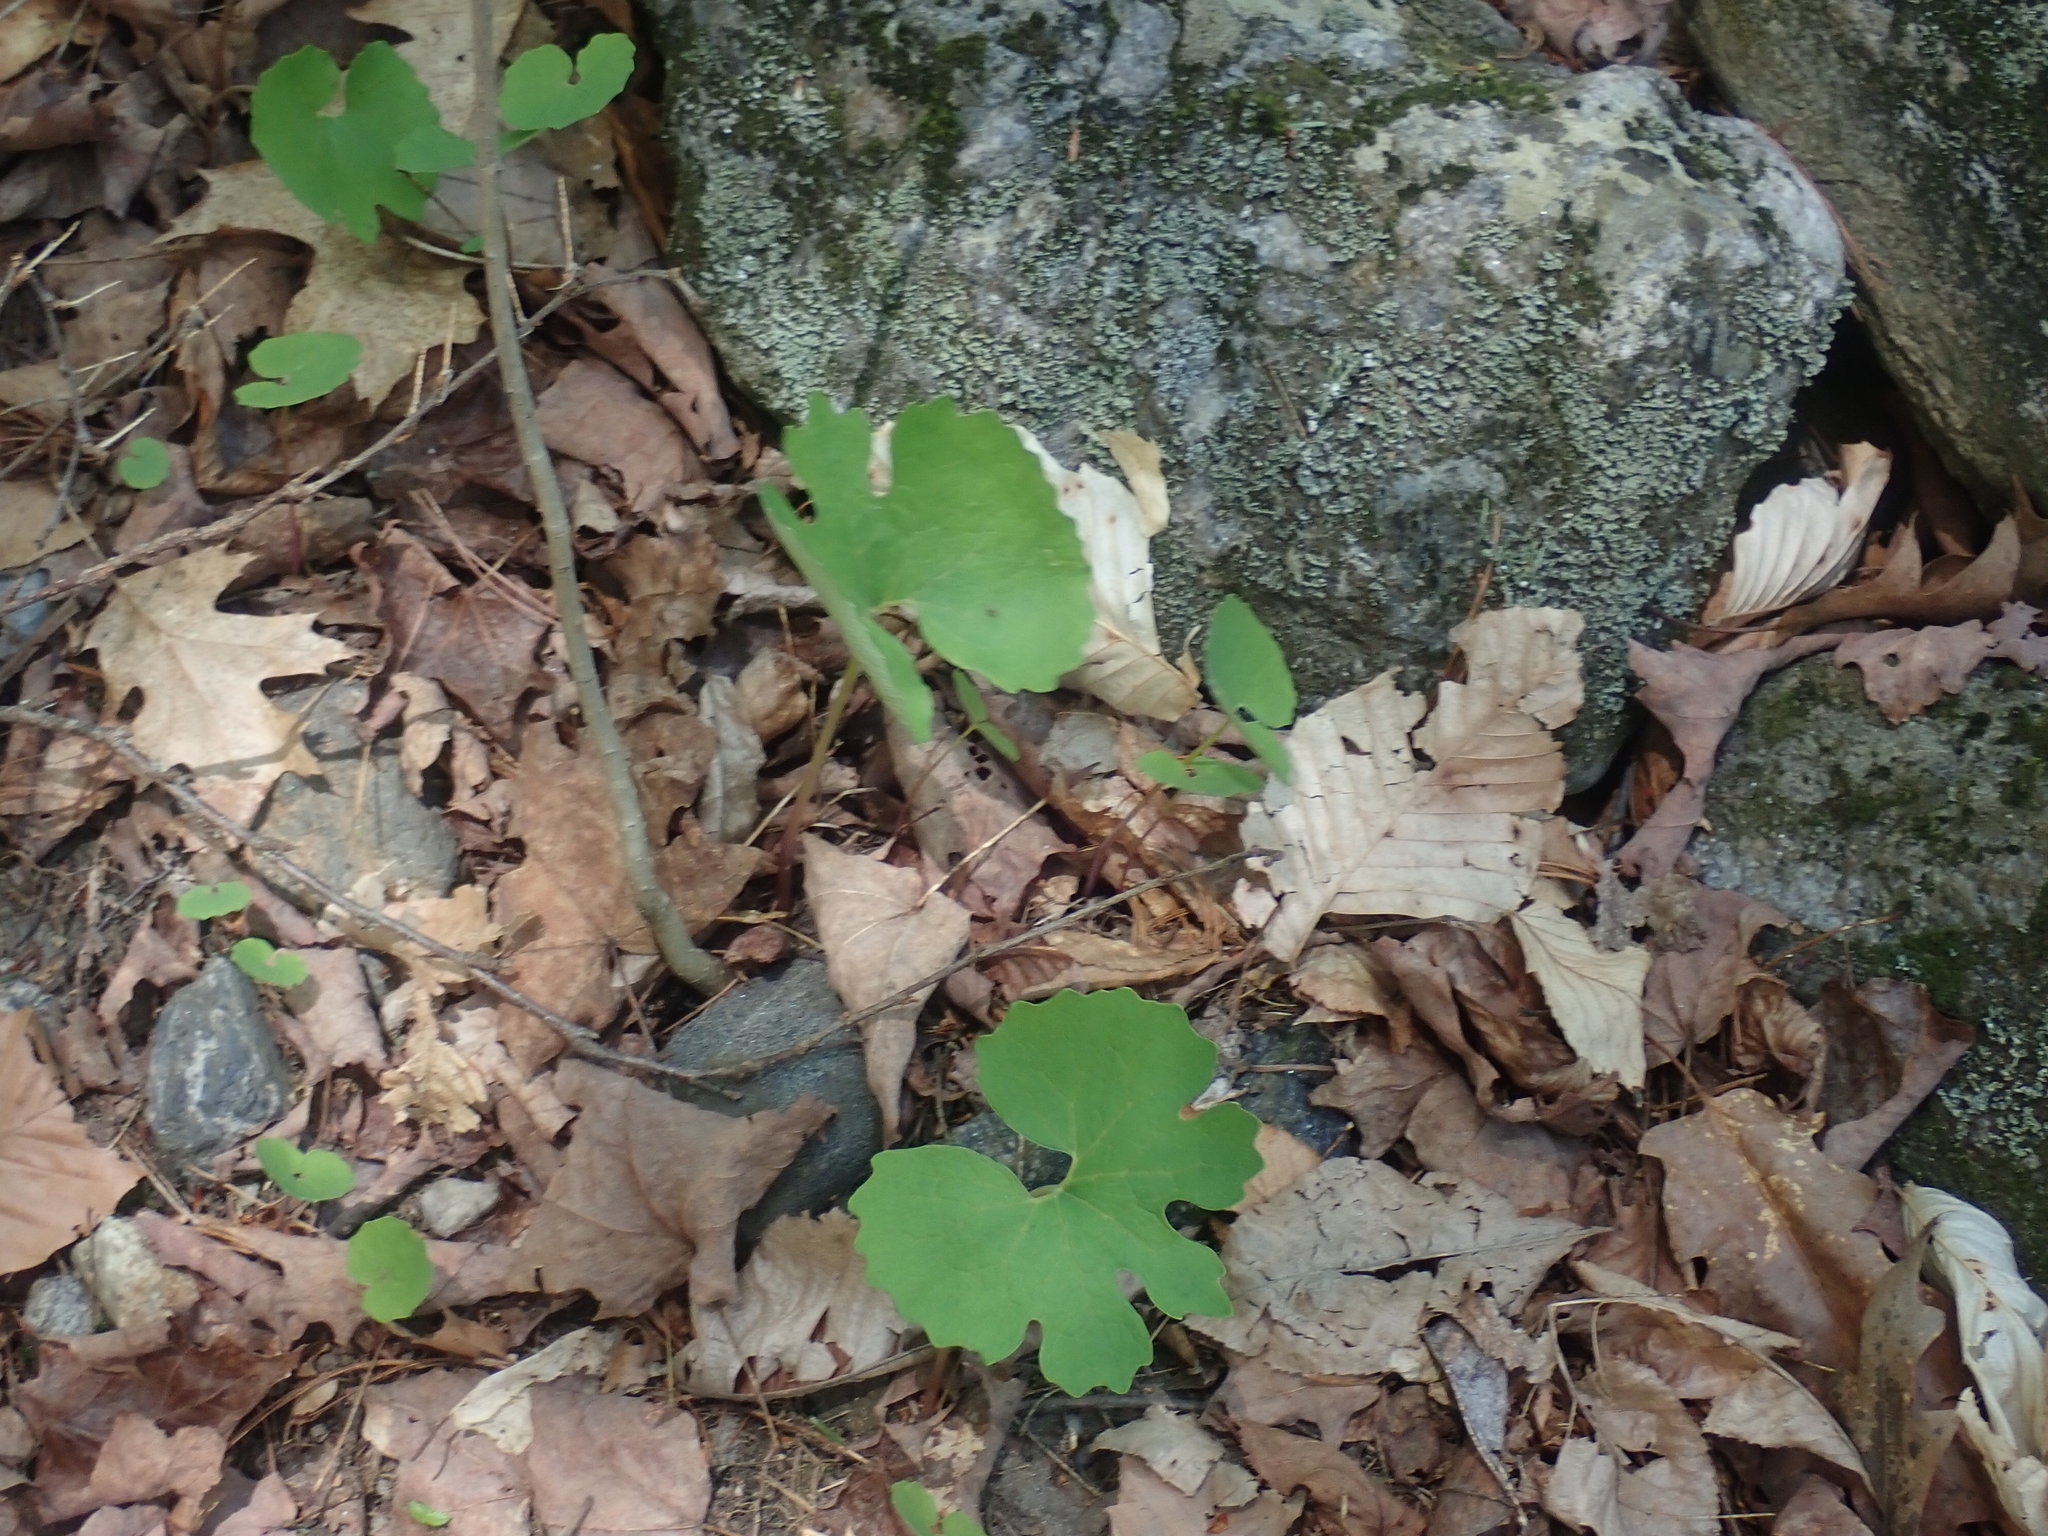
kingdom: Plantae
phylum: Tracheophyta
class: Magnoliopsida
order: Ranunculales
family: Papaveraceae
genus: Sanguinaria
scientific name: Sanguinaria canadensis
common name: Bloodroot
